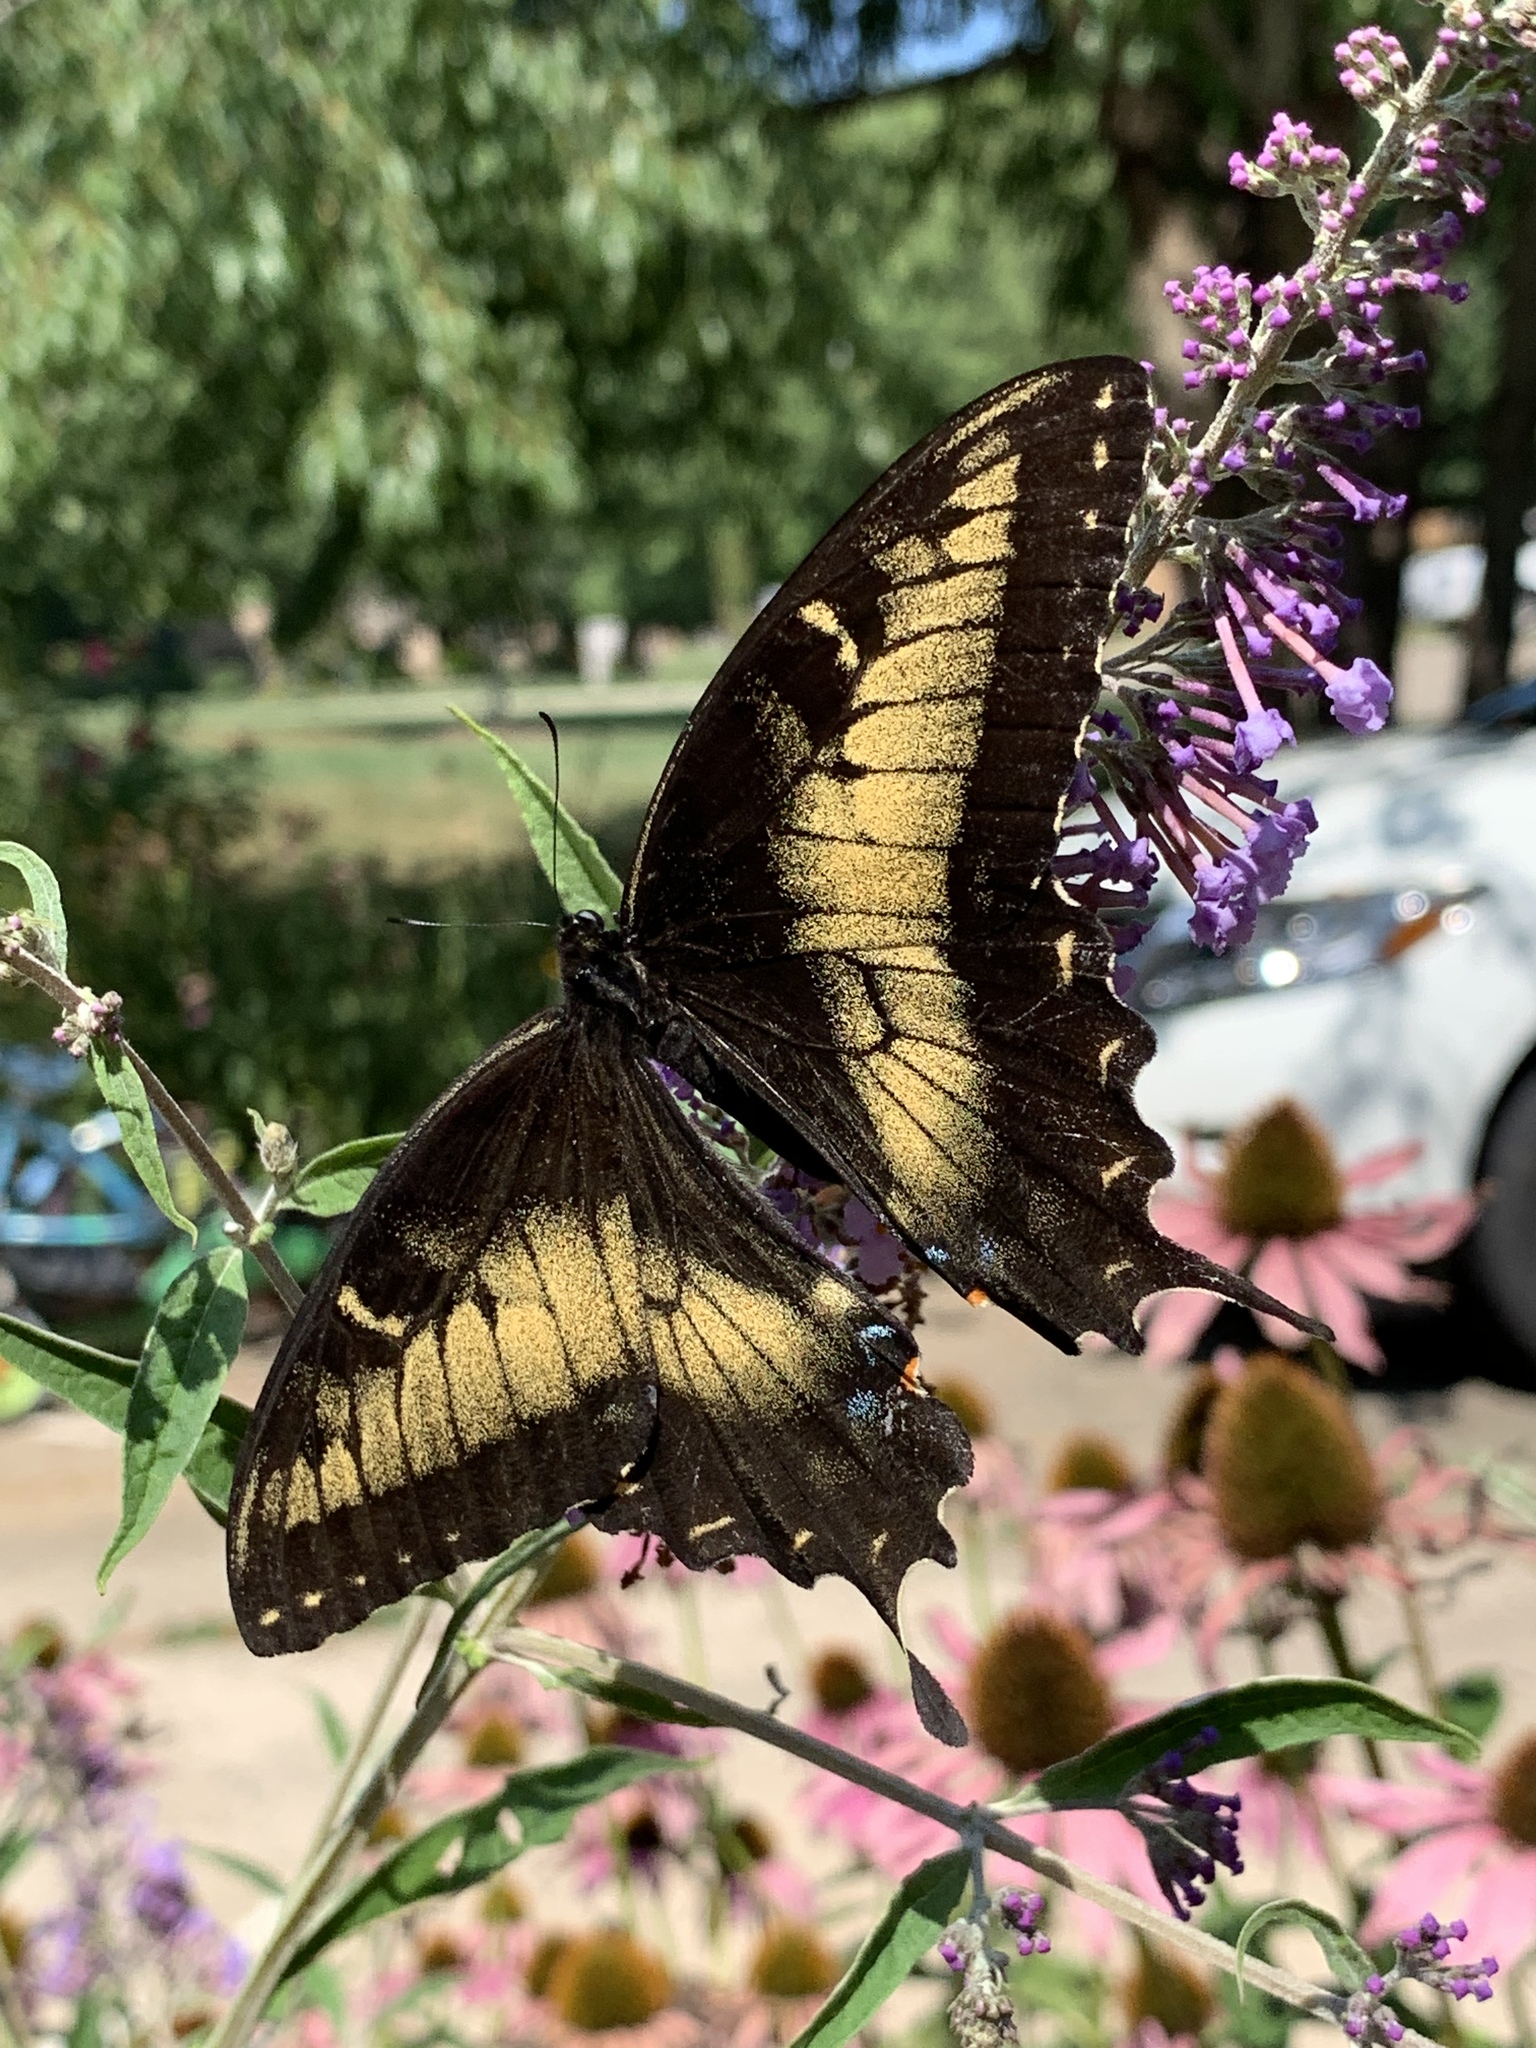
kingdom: Animalia
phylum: Arthropoda
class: Insecta
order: Lepidoptera
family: Papilionidae
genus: Papilio
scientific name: Papilio glaucus
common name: Tiger swallowtail
